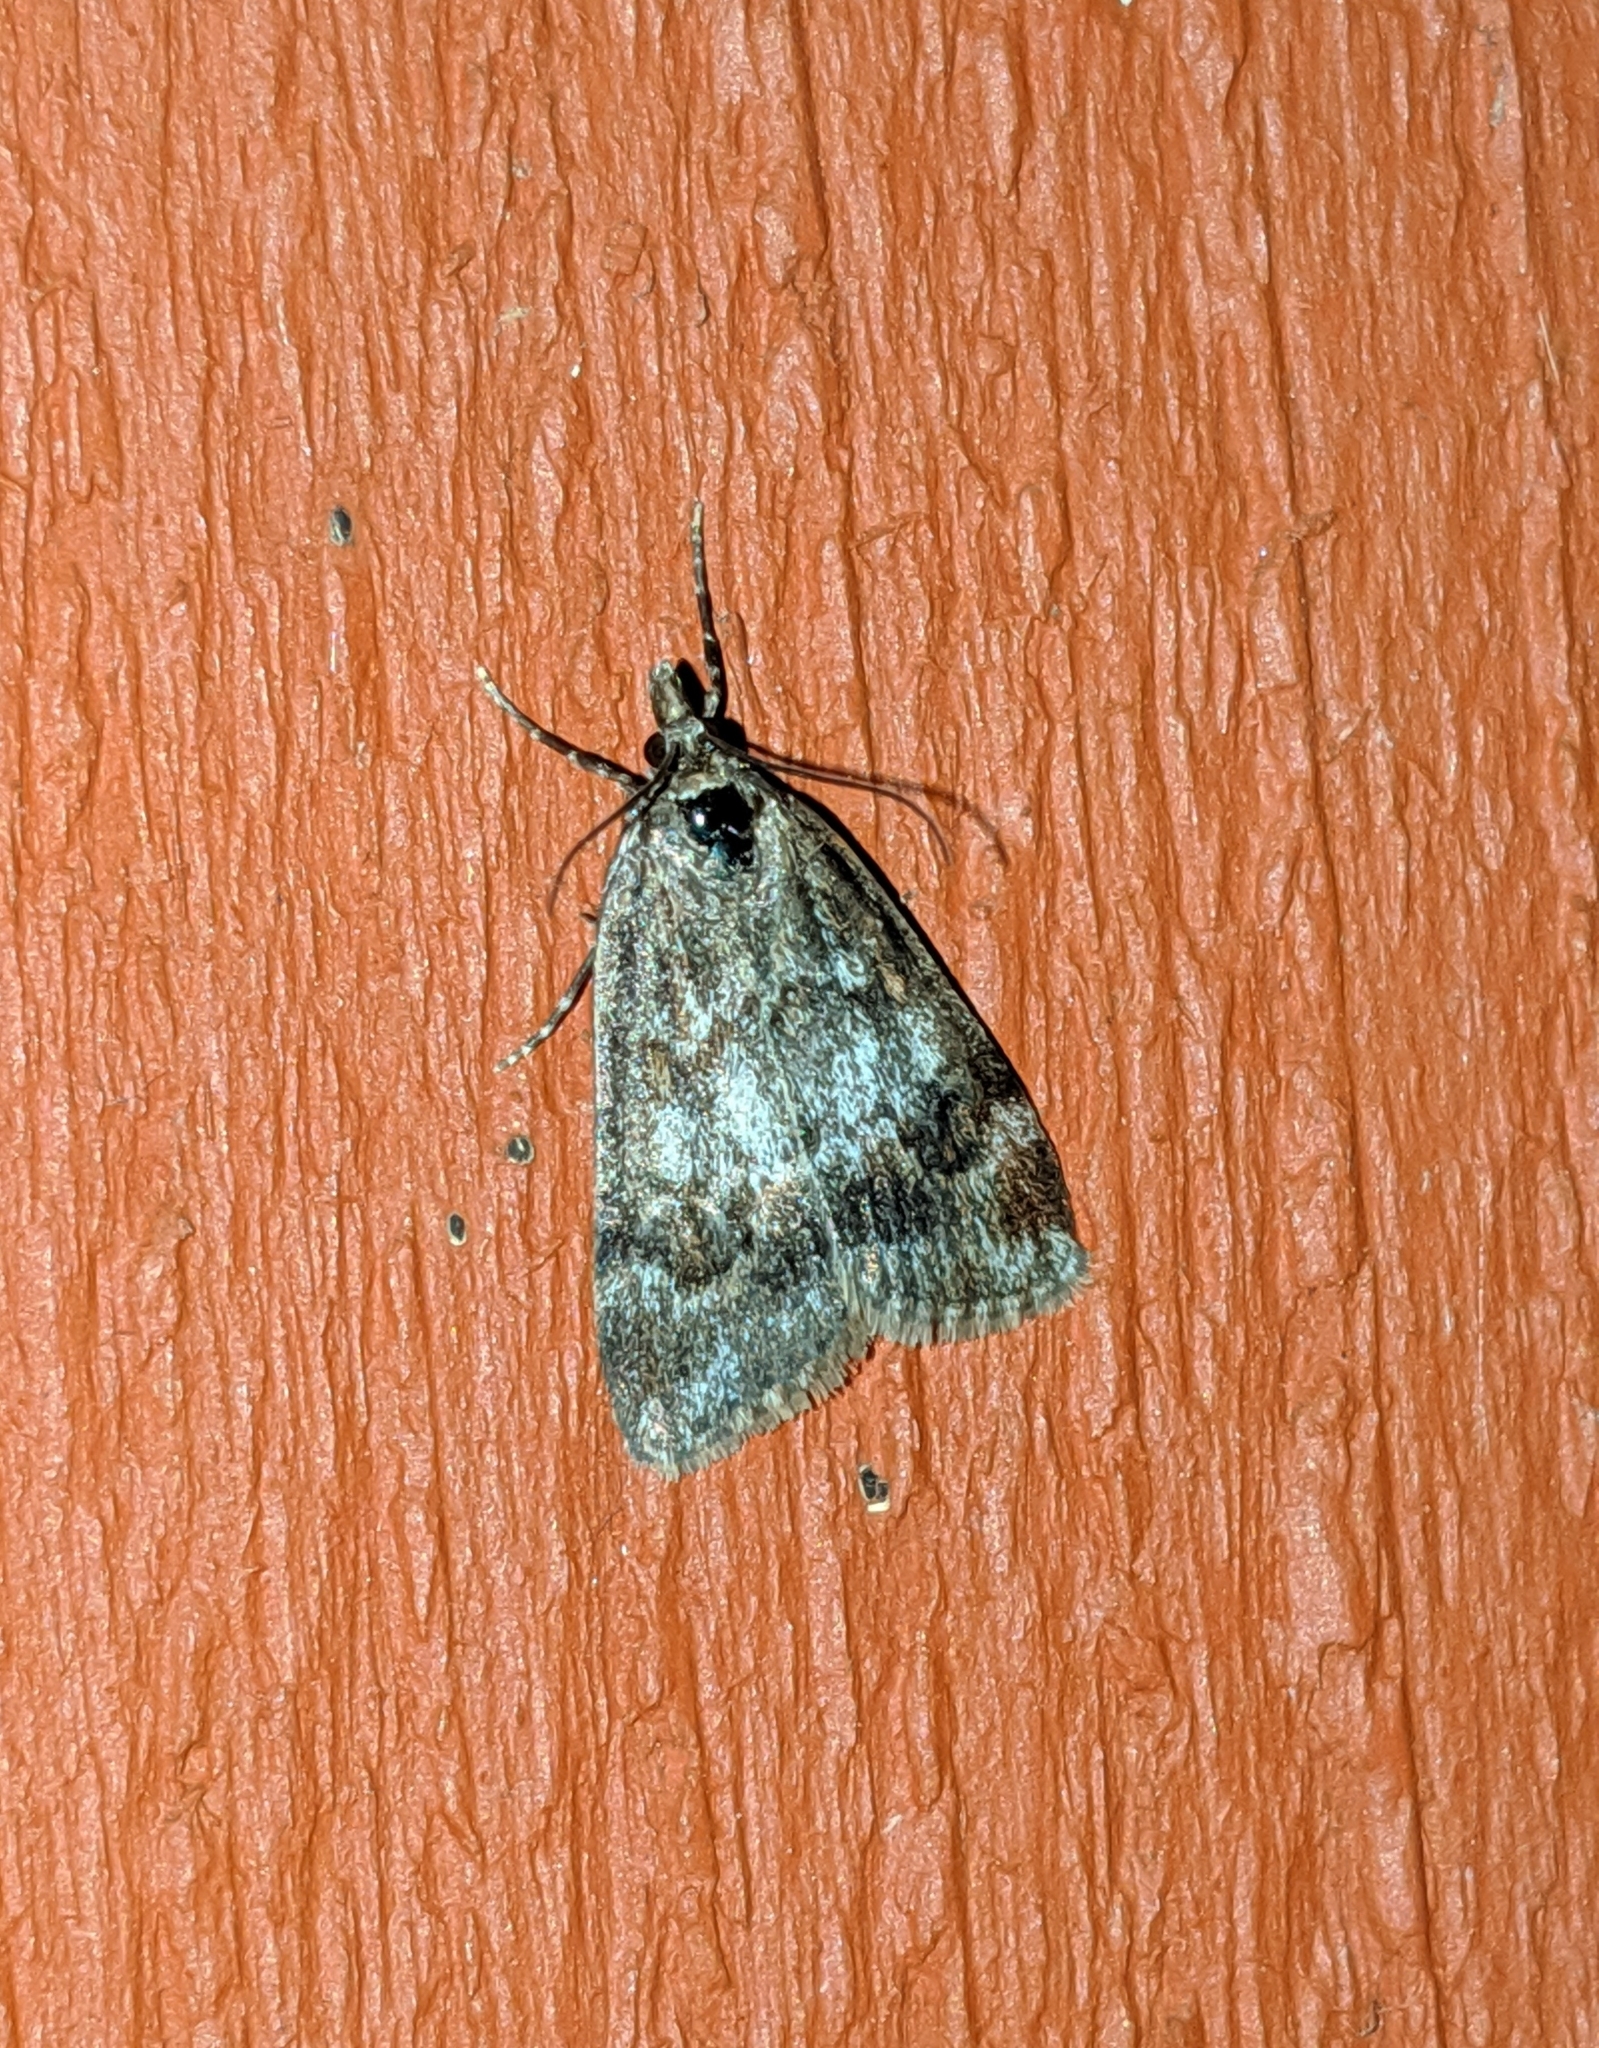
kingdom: Animalia
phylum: Arthropoda
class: Insecta
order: Lepidoptera
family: Crambidae
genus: Gesneria
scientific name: Gesneria centuriella
